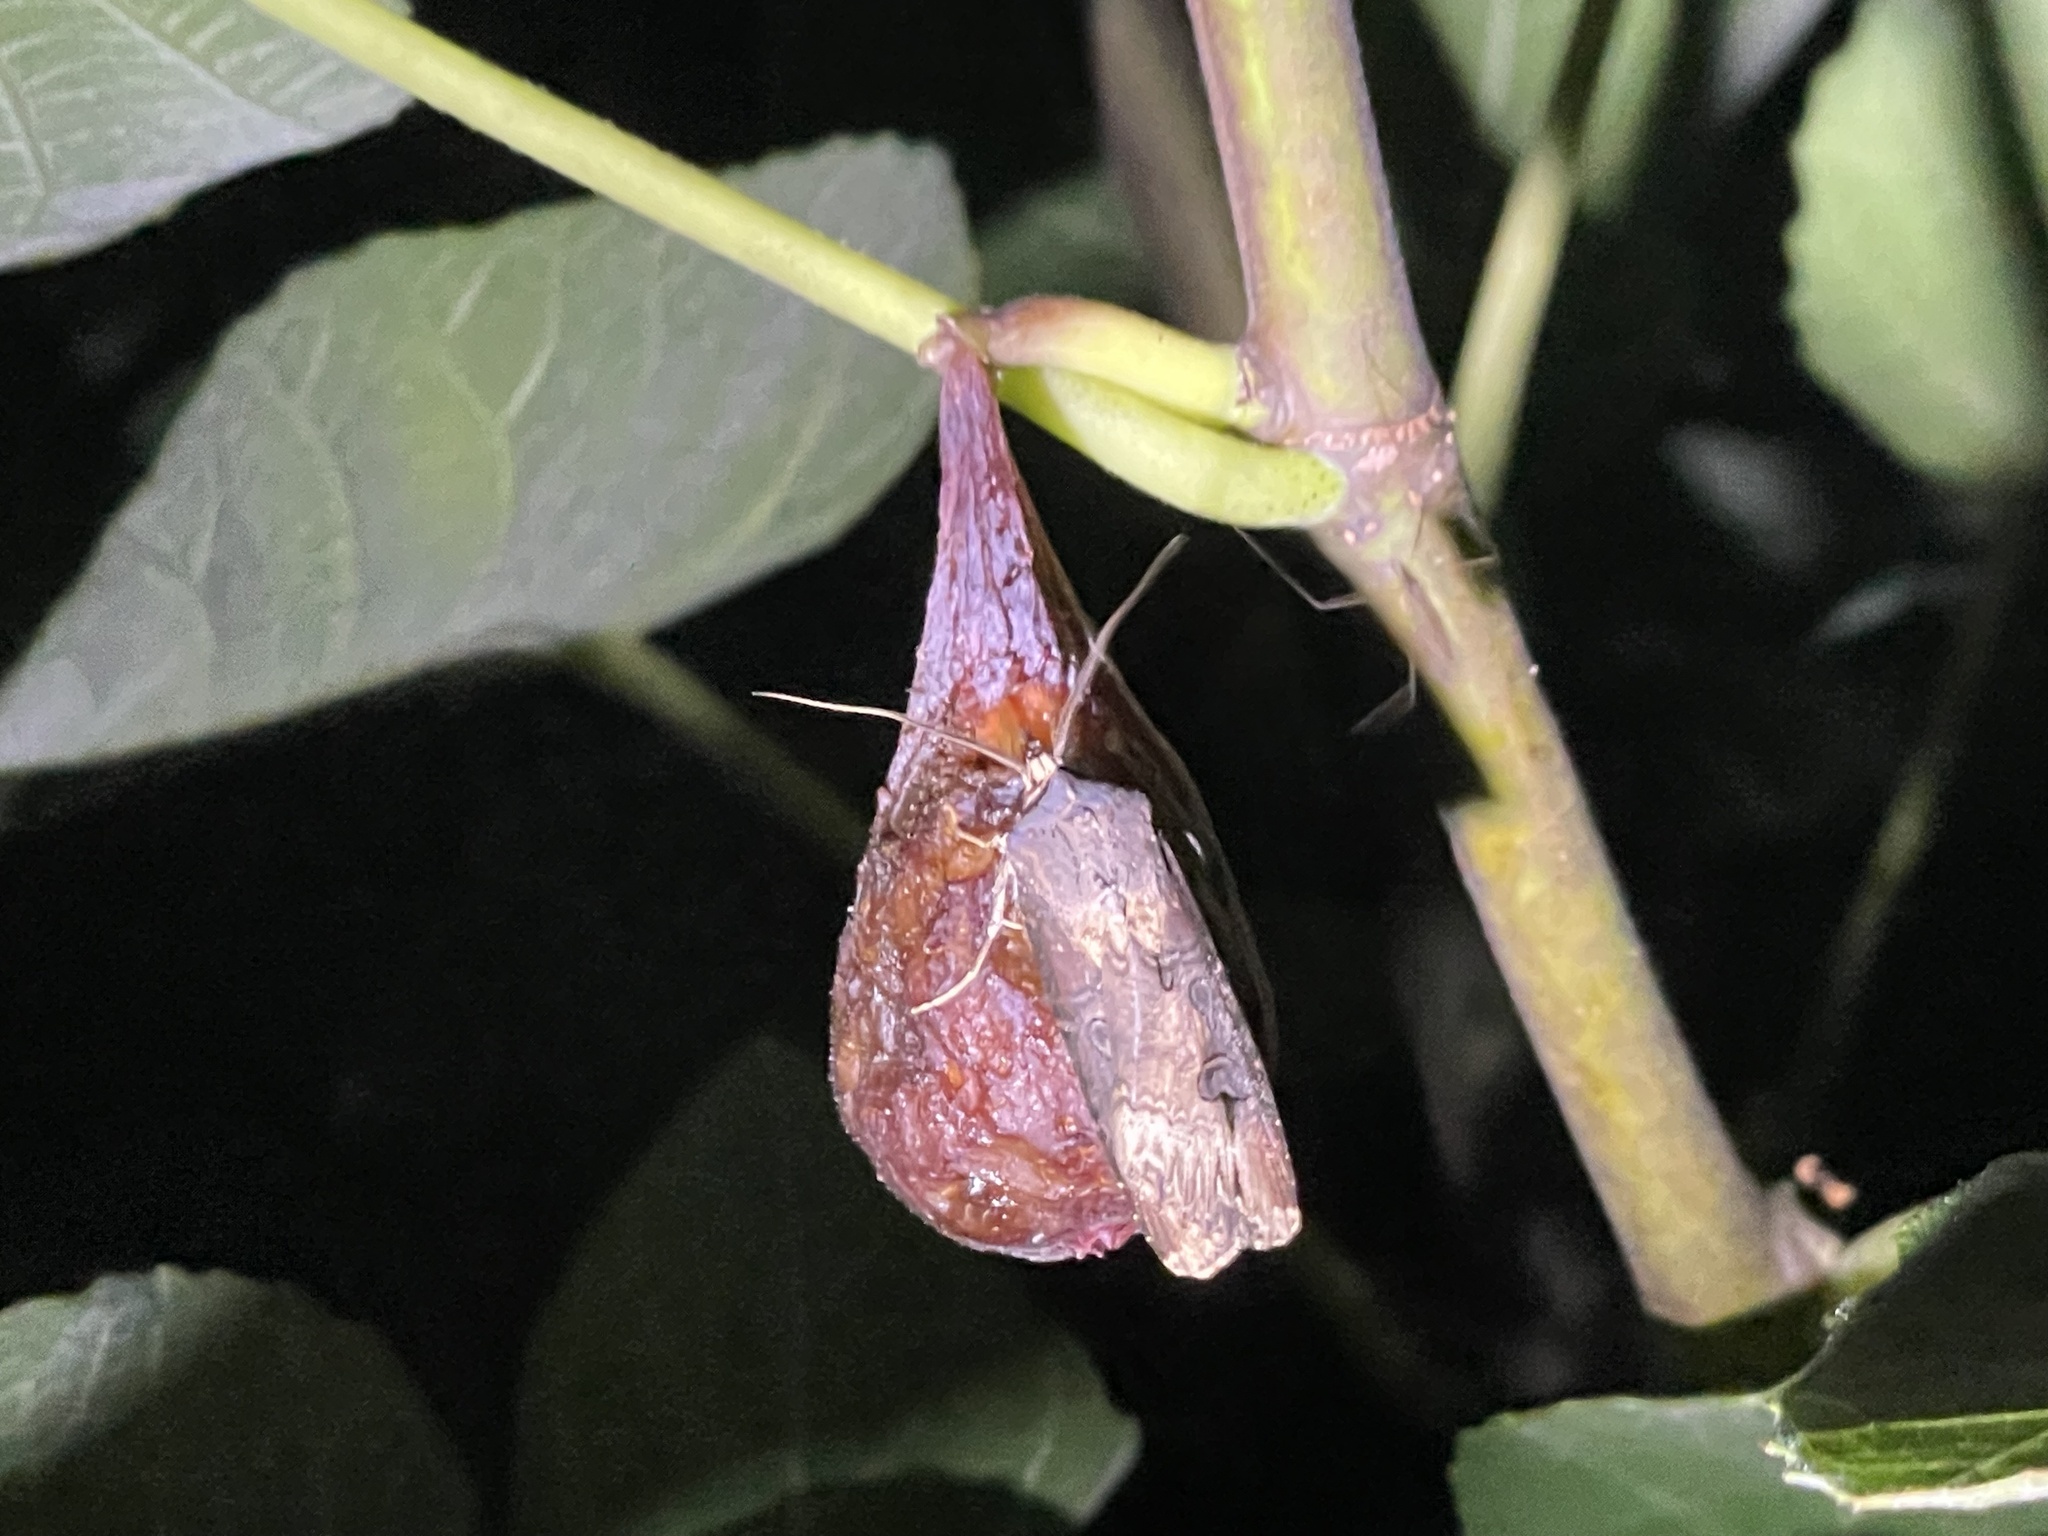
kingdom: Animalia
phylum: Arthropoda
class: Insecta
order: Lepidoptera
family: Noctuidae
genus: Agrotis
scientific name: Agrotis ipsilon
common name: Dark sword-grass
